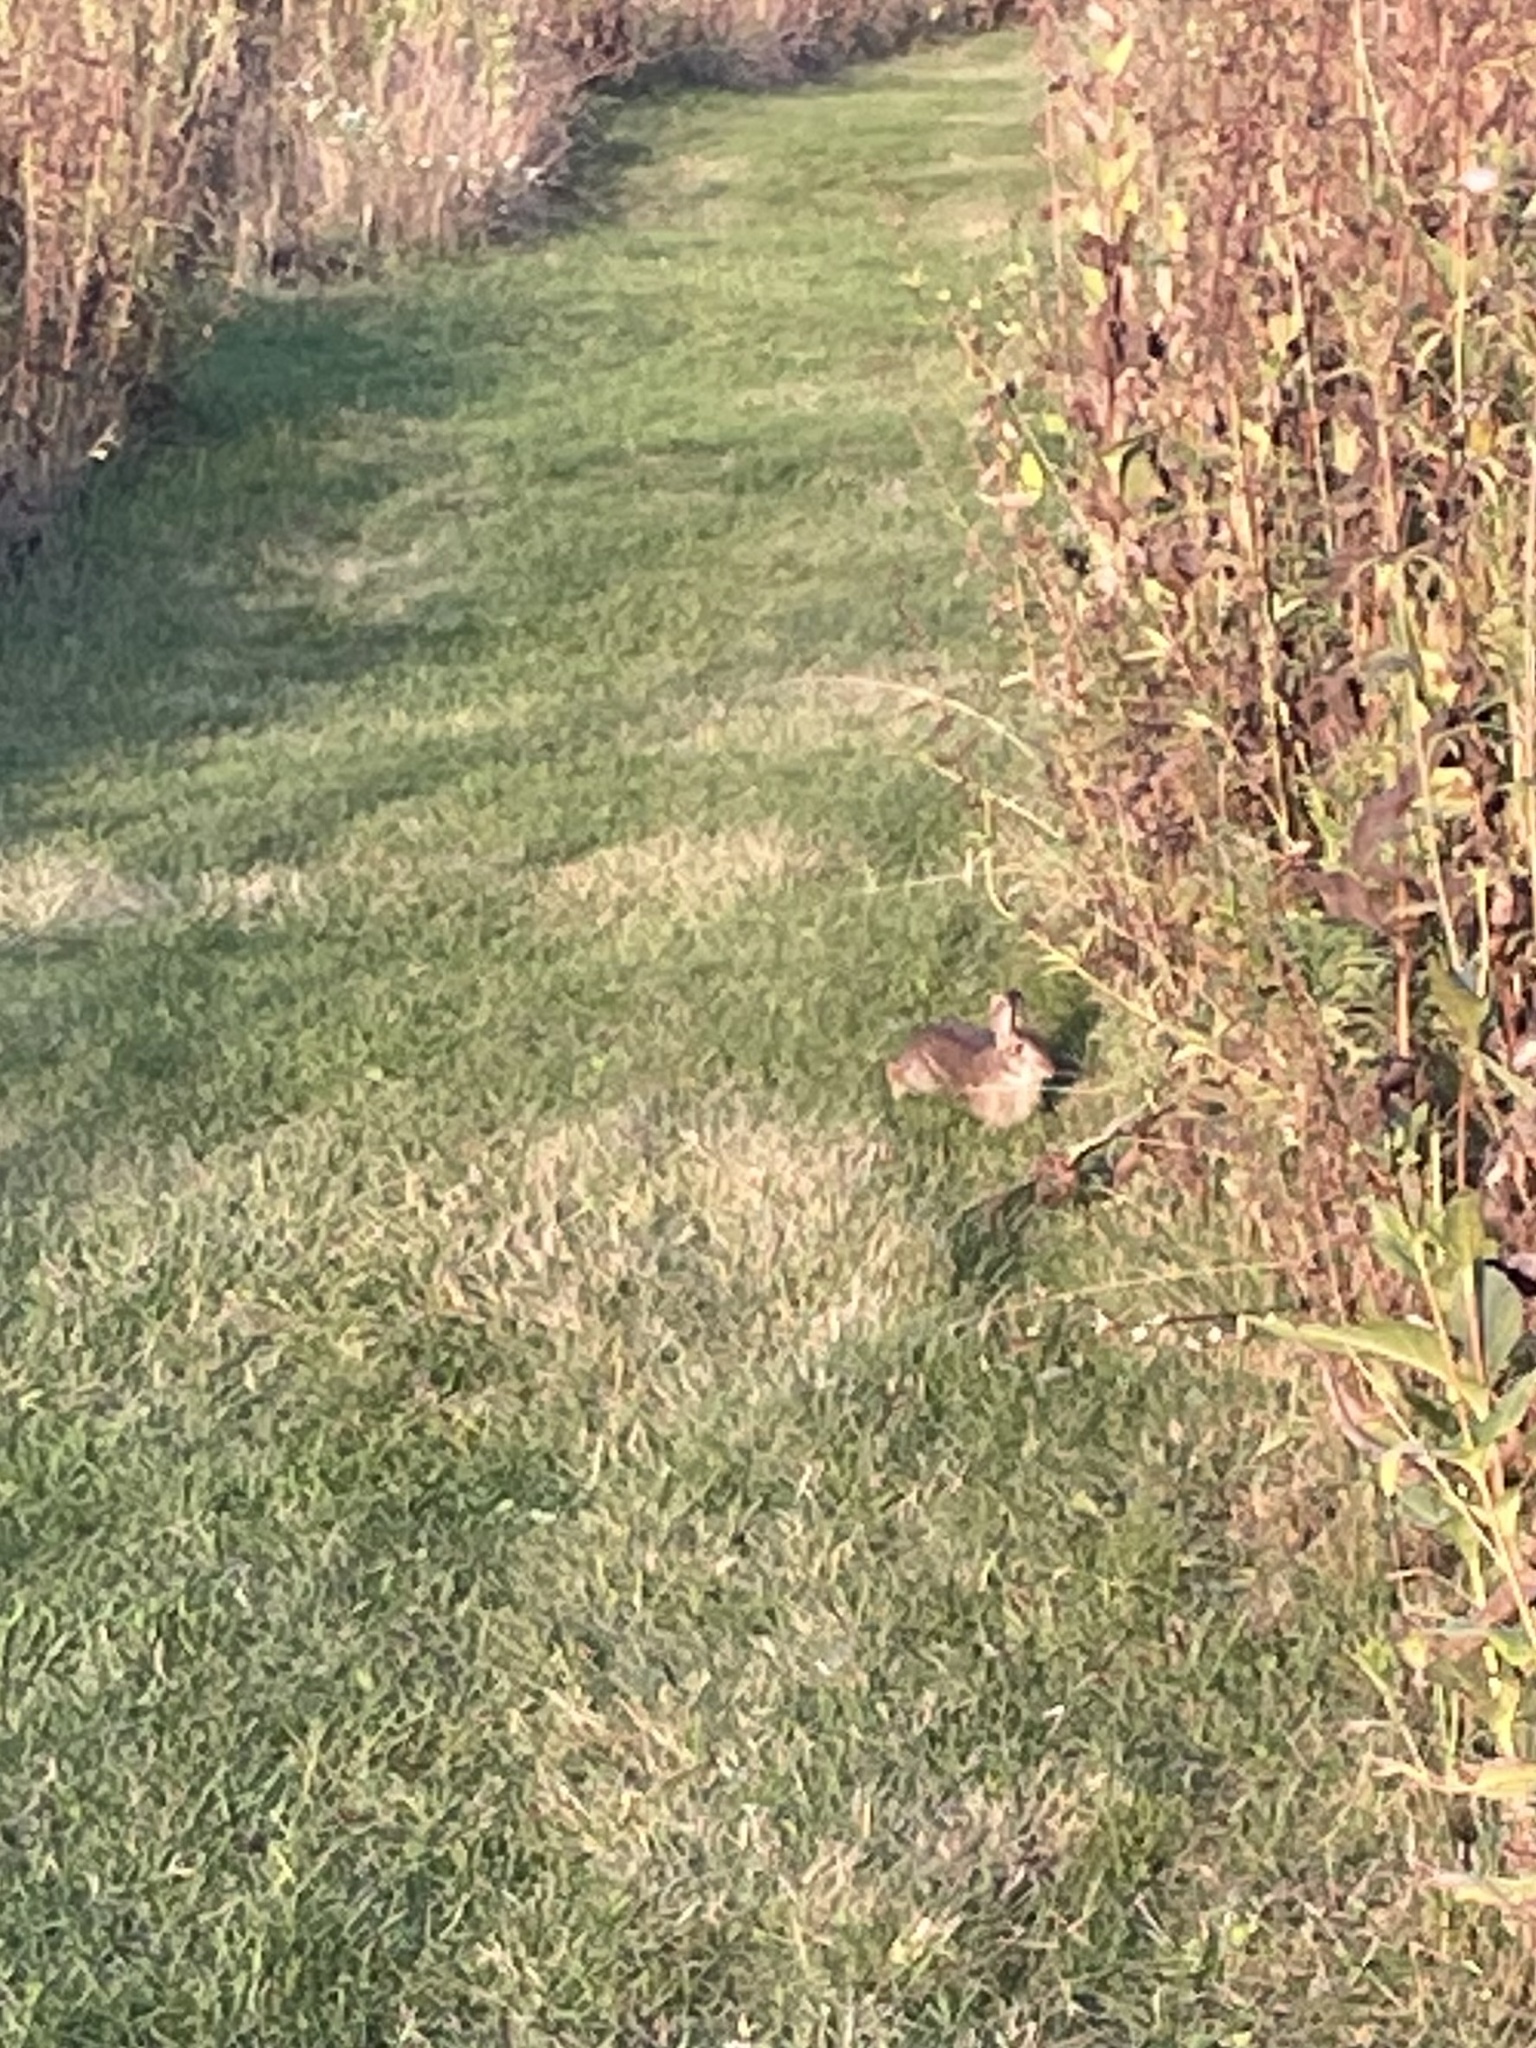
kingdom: Animalia
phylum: Chordata
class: Mammalia
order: Lagomorpha
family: Leporidae
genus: Sylvilagus
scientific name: Sylvilagus floridanus
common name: Eastern cottontail
